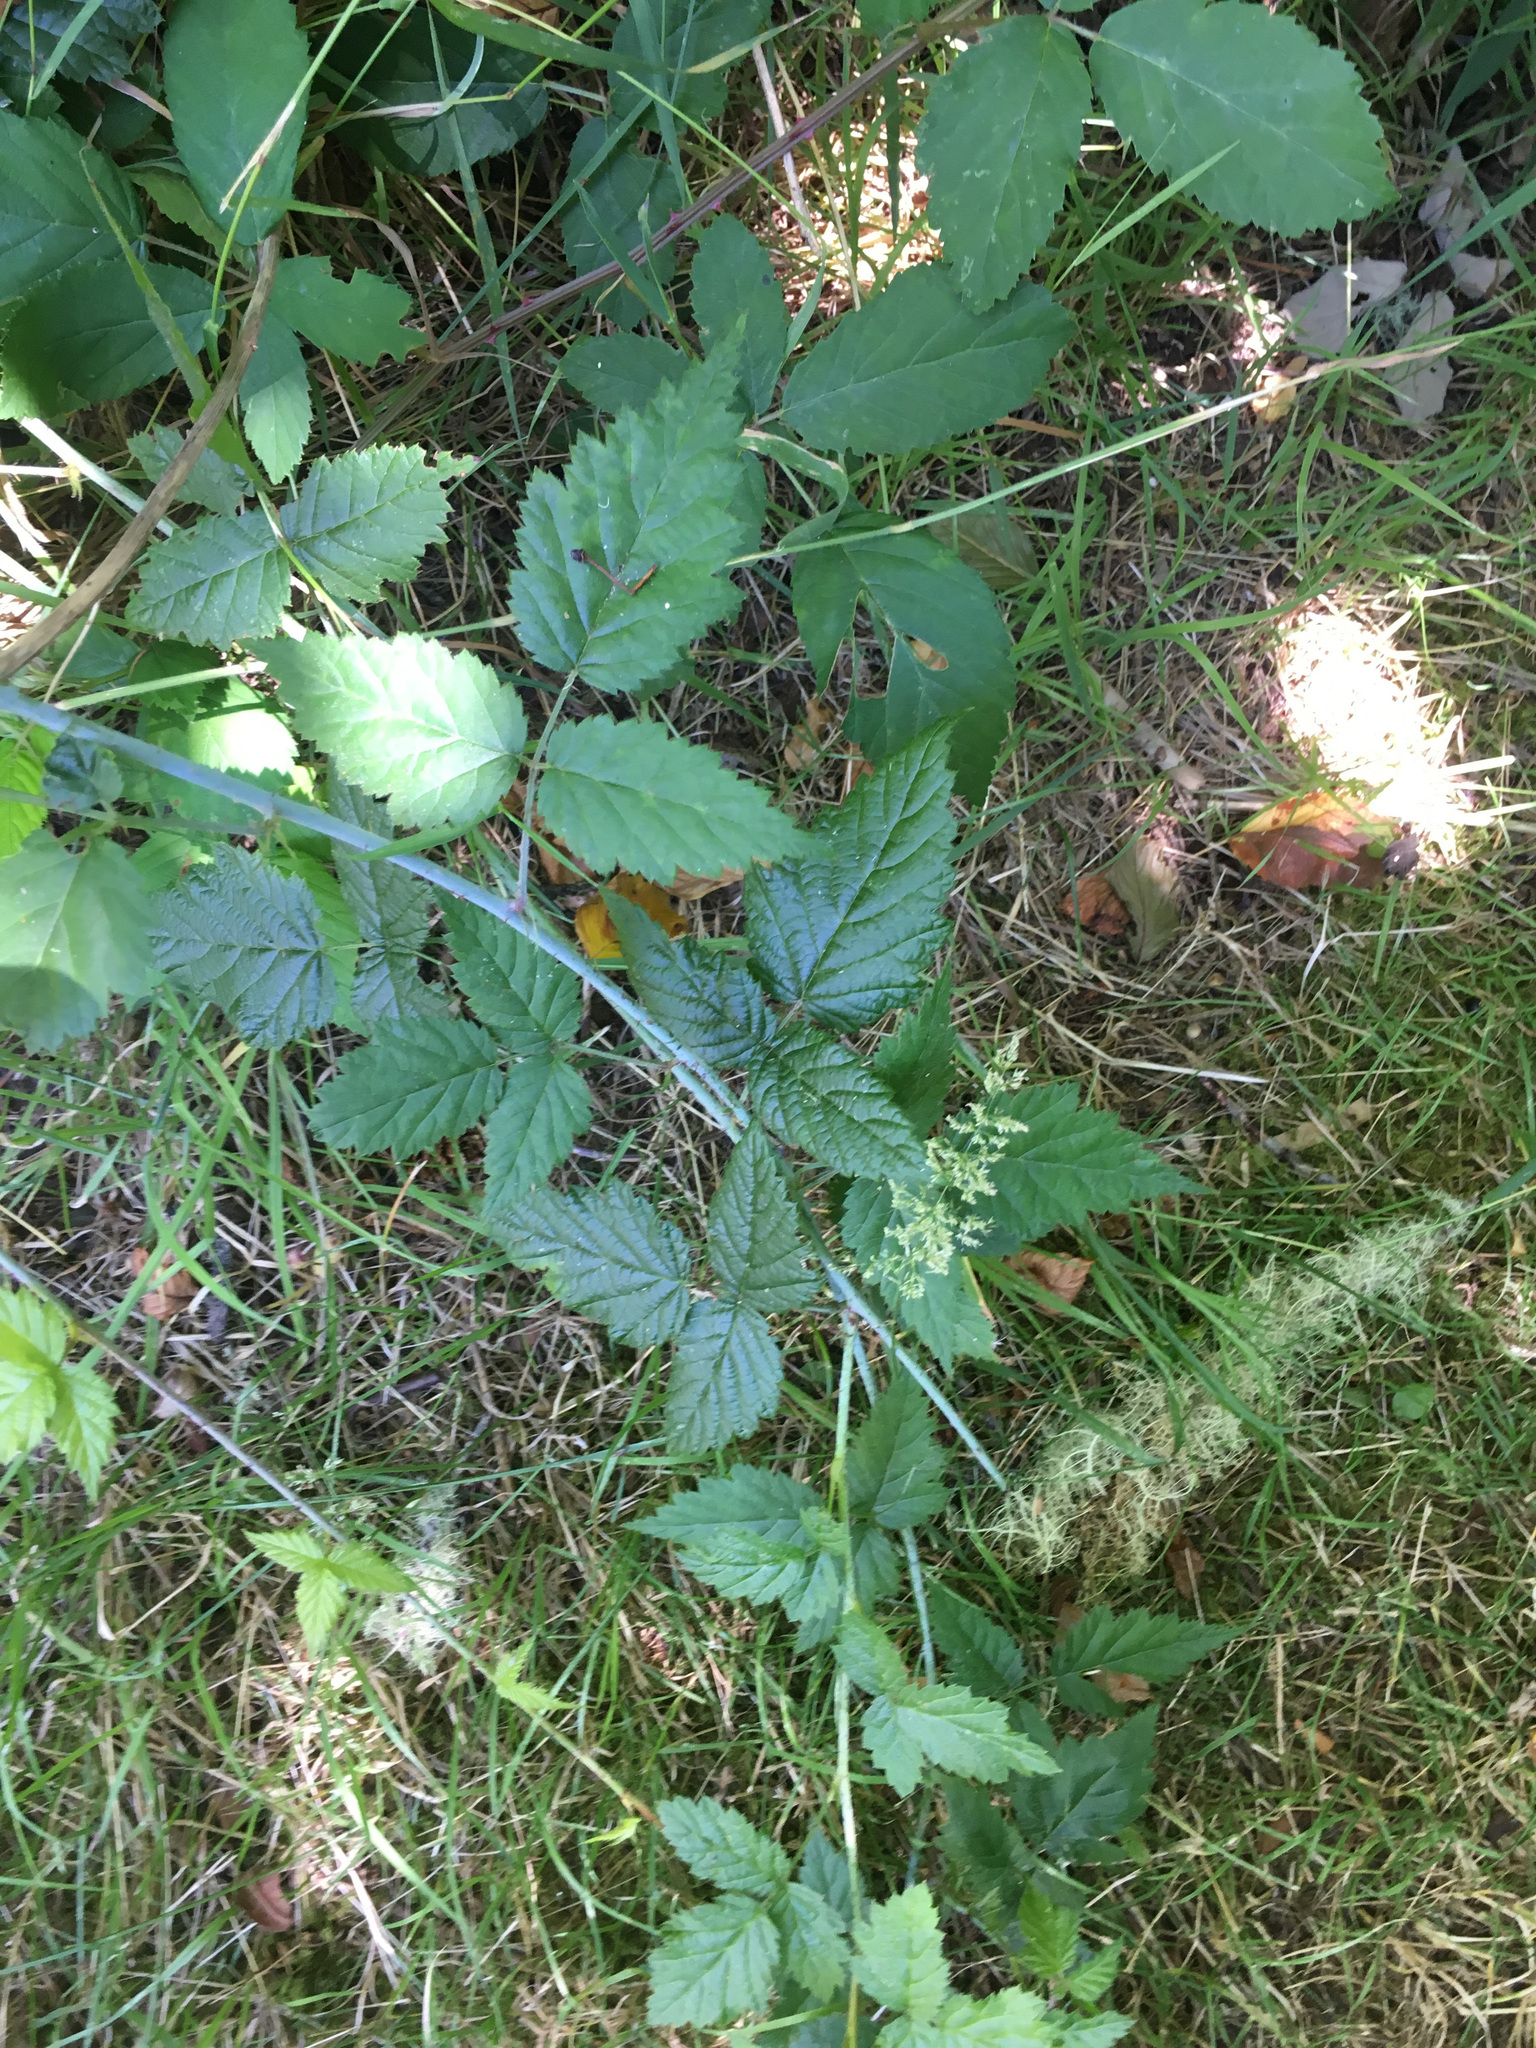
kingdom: Plantae
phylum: Tracheophyta
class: Magnoliopsida
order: Rosales
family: Rosaceae
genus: Rubus
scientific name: Rubus ursinus
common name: Pacific blackberry
